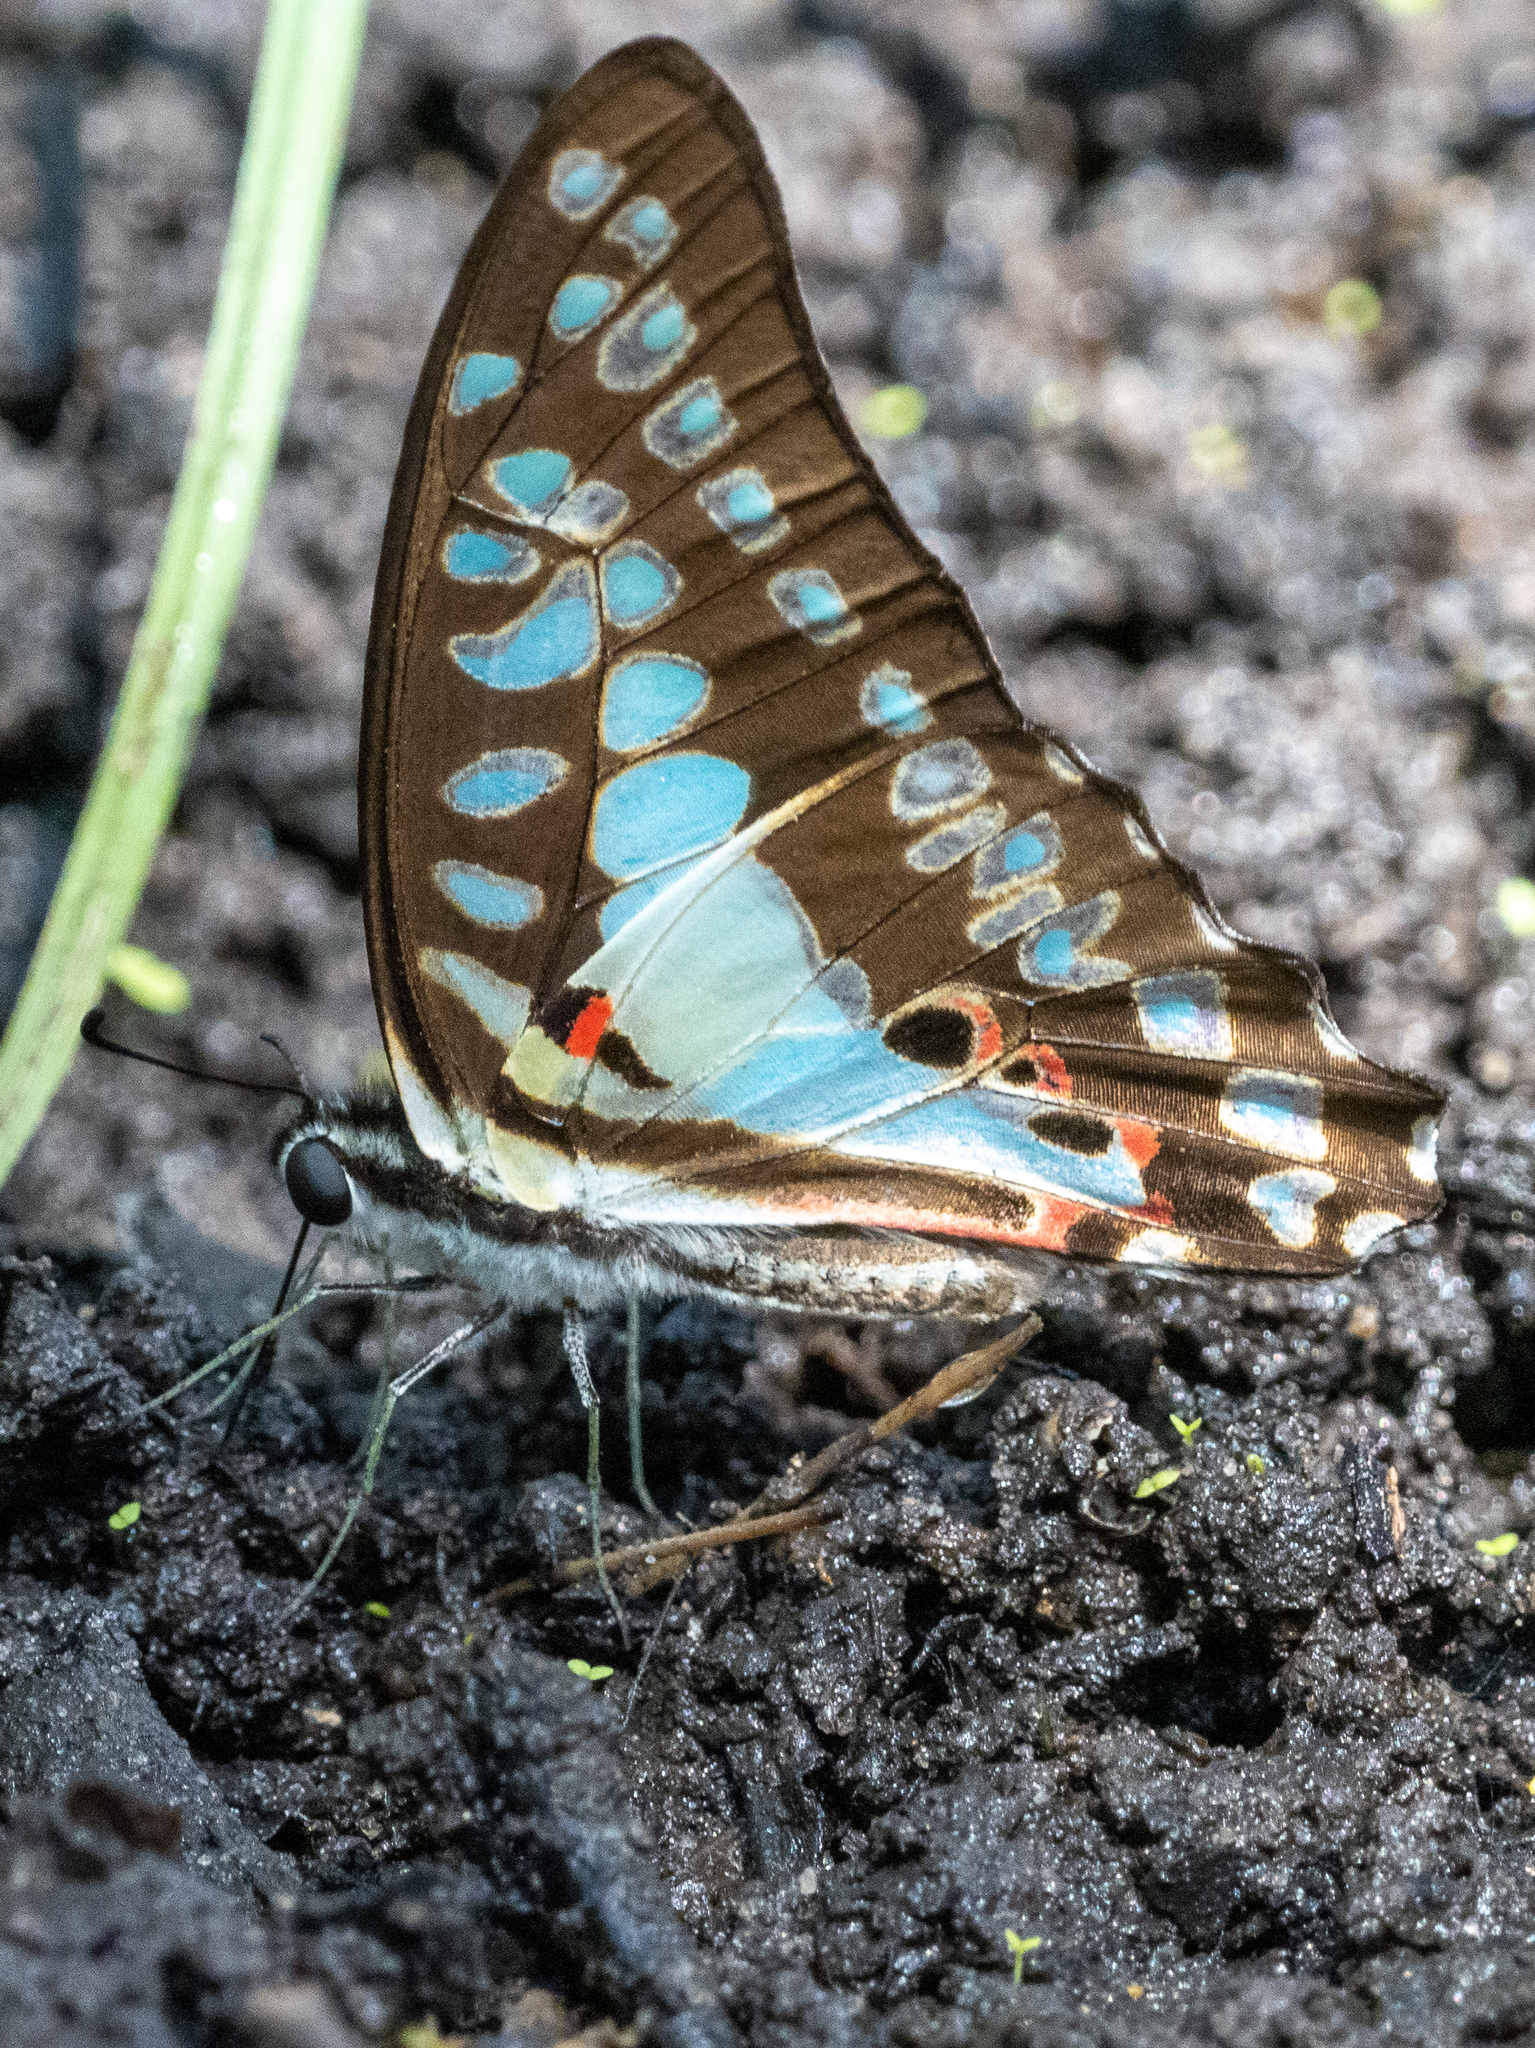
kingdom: Animalia
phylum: Arthropoda
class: Insecta
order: Lepidoptera
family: Papilionidae
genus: Graphium
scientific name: Graphium doson
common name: Common jay
